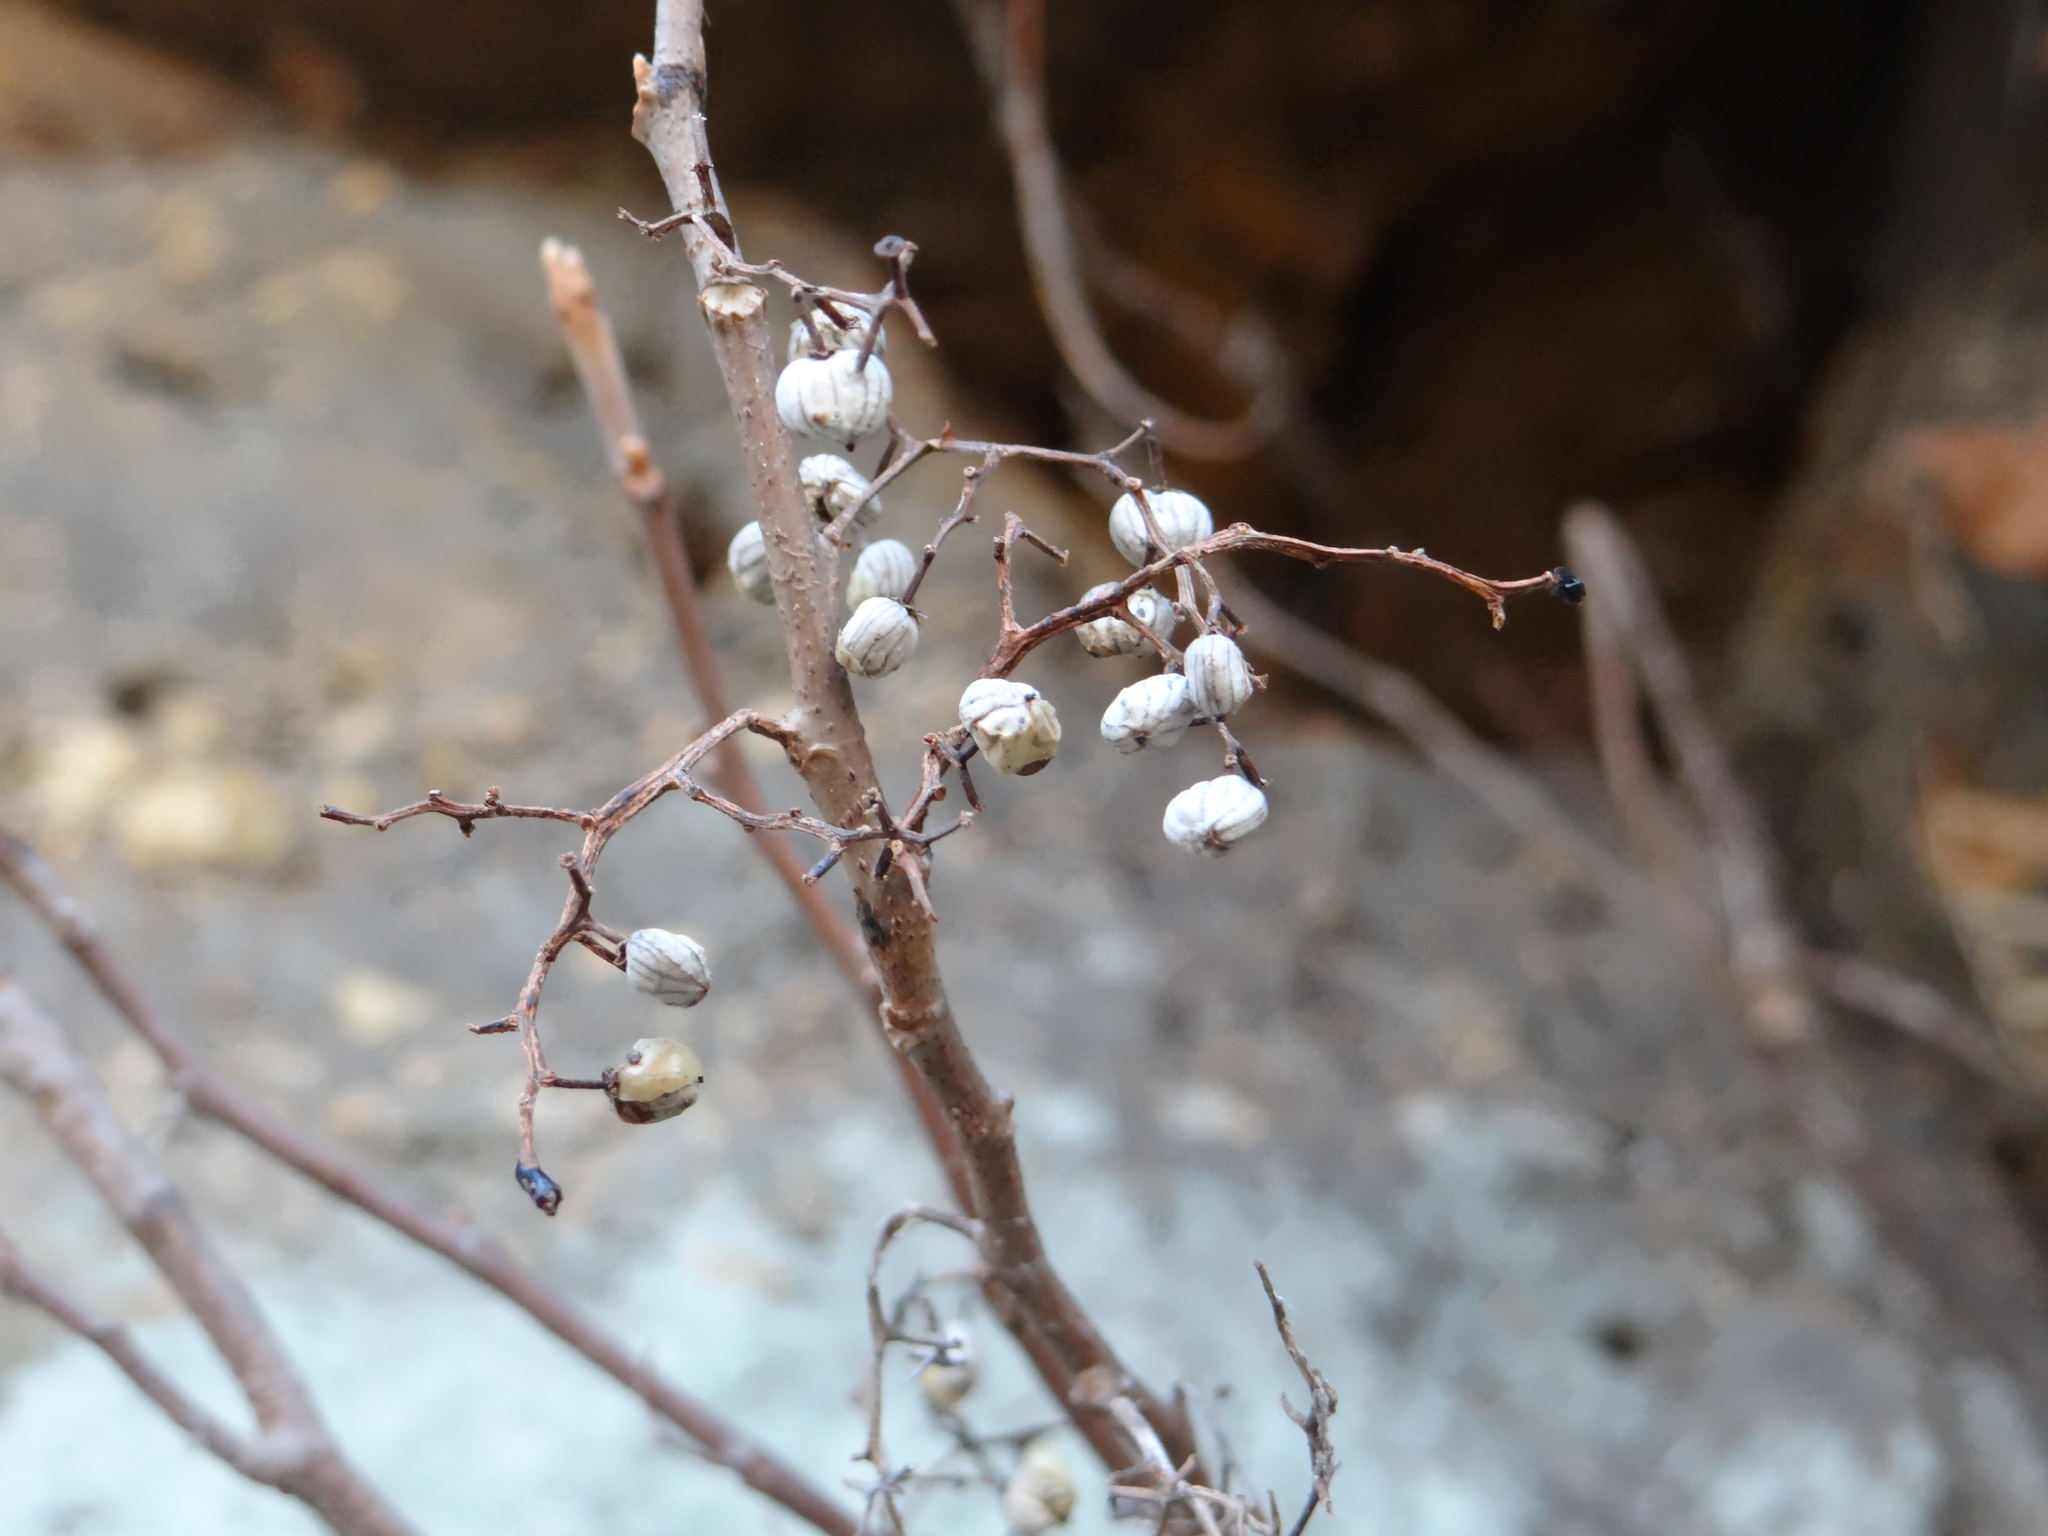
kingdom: Plantae
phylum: Tracheophyta
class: Magnoliopsida
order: Sapindales
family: Anacardiaceae
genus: Toxicodendron
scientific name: Toxicodendron radicans
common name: Poison ivy
